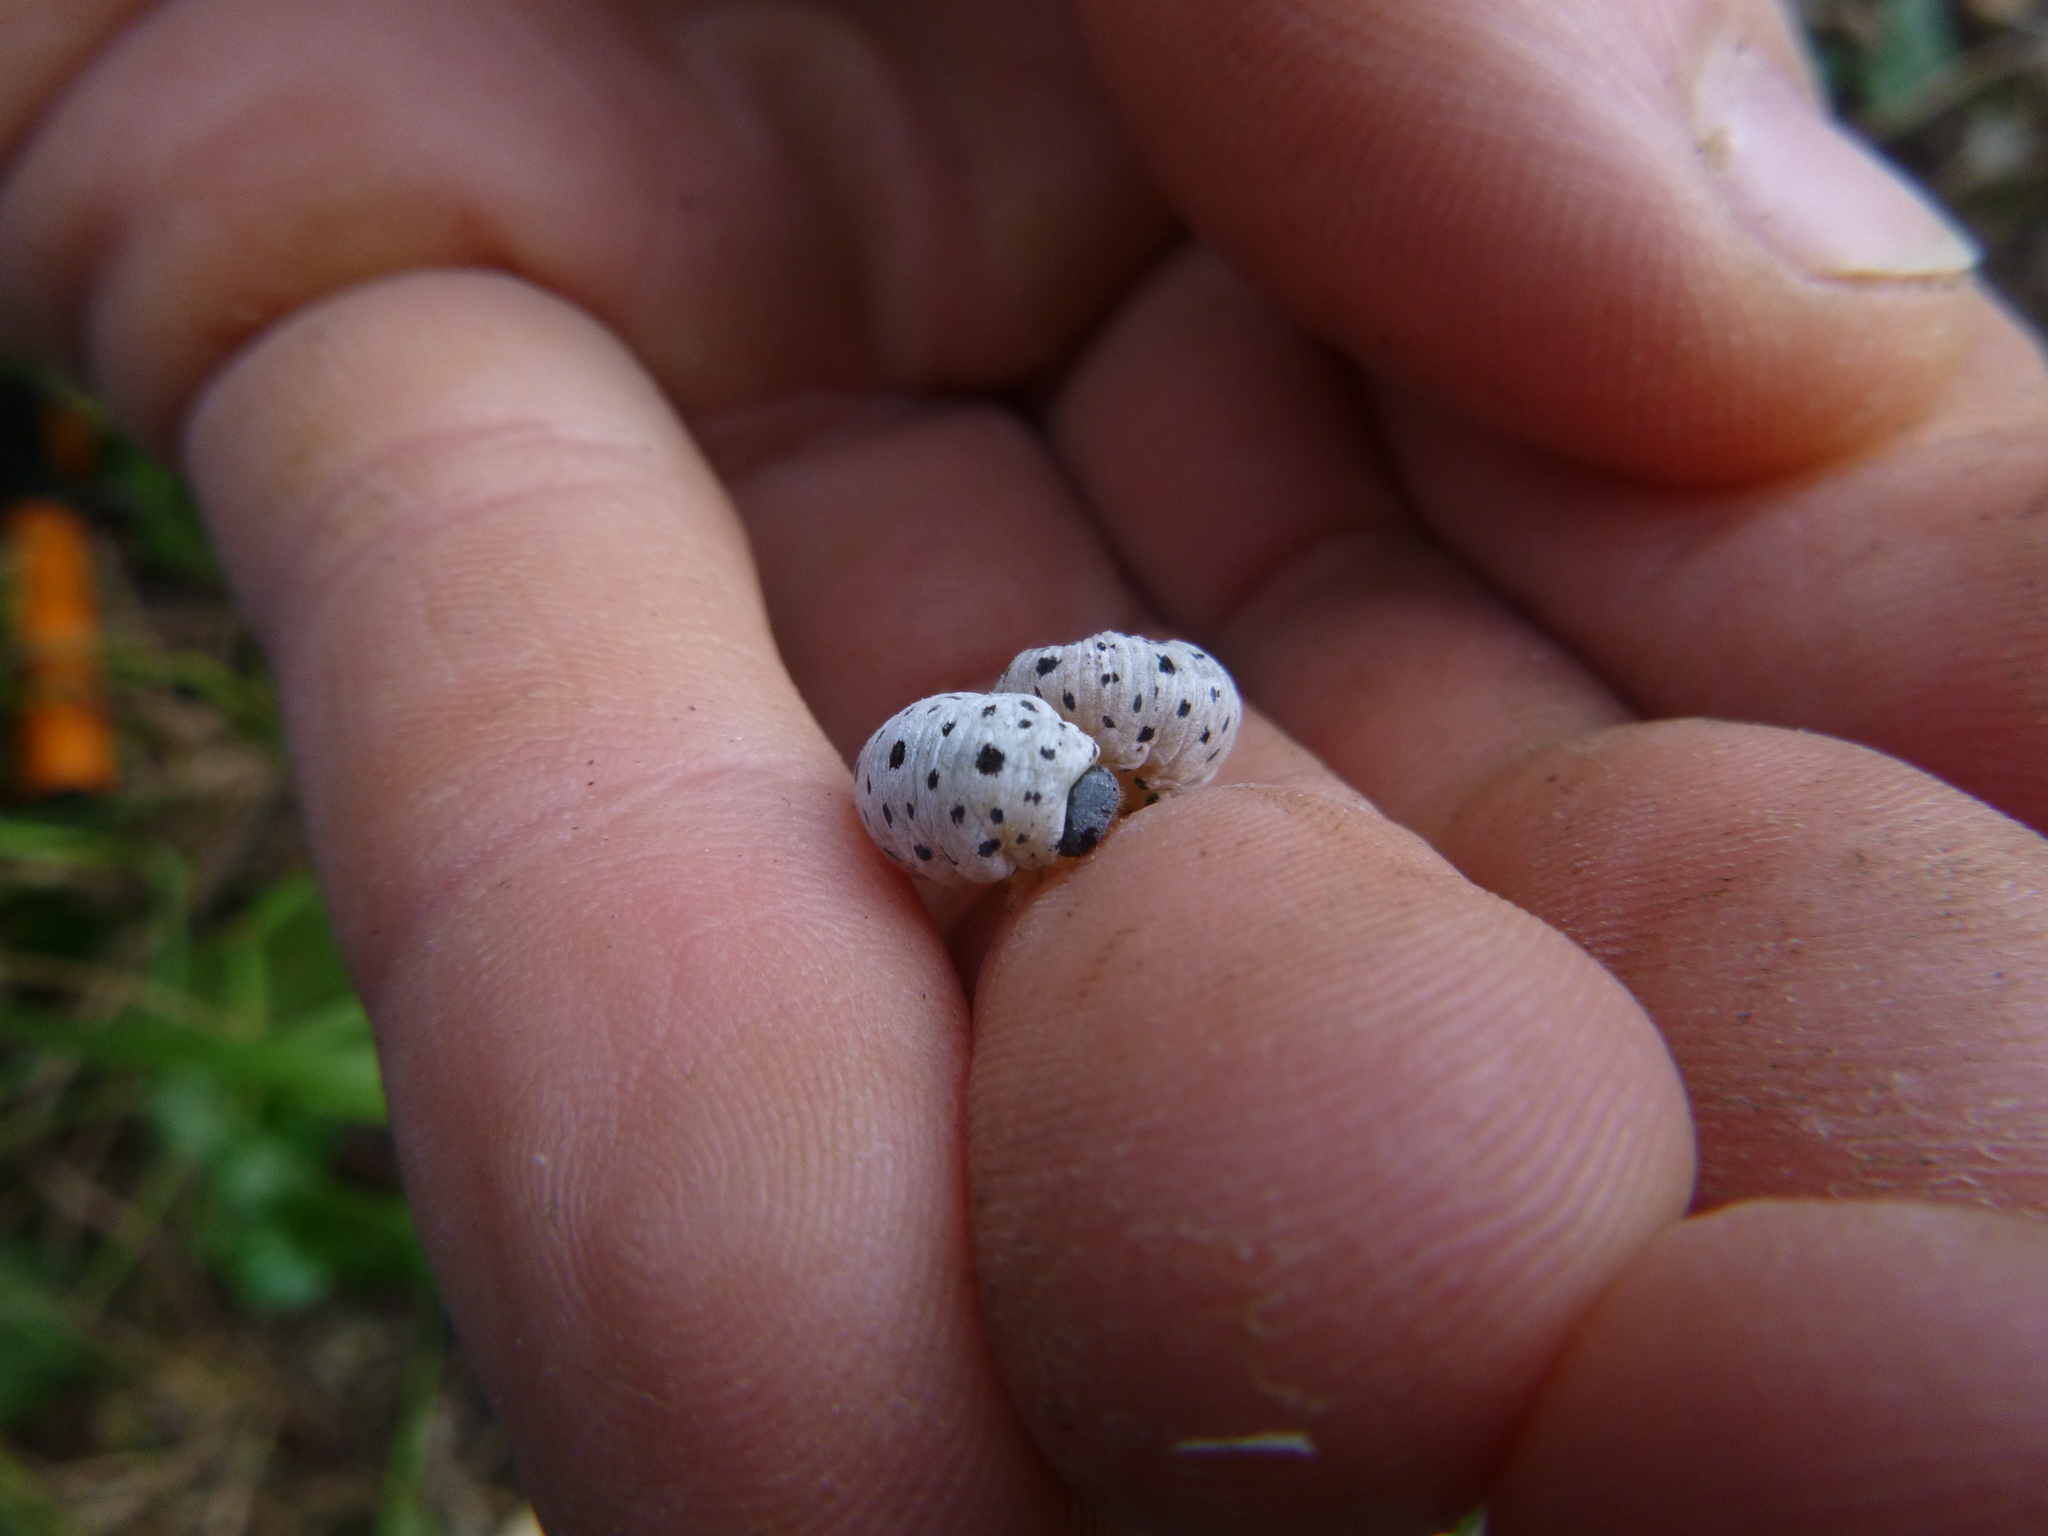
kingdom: Animalia
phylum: Arthropoda
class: Insecta
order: Hymenoptera
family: Tenthredinidae
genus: Tenthredo
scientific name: Tenthredo scrophulariae
